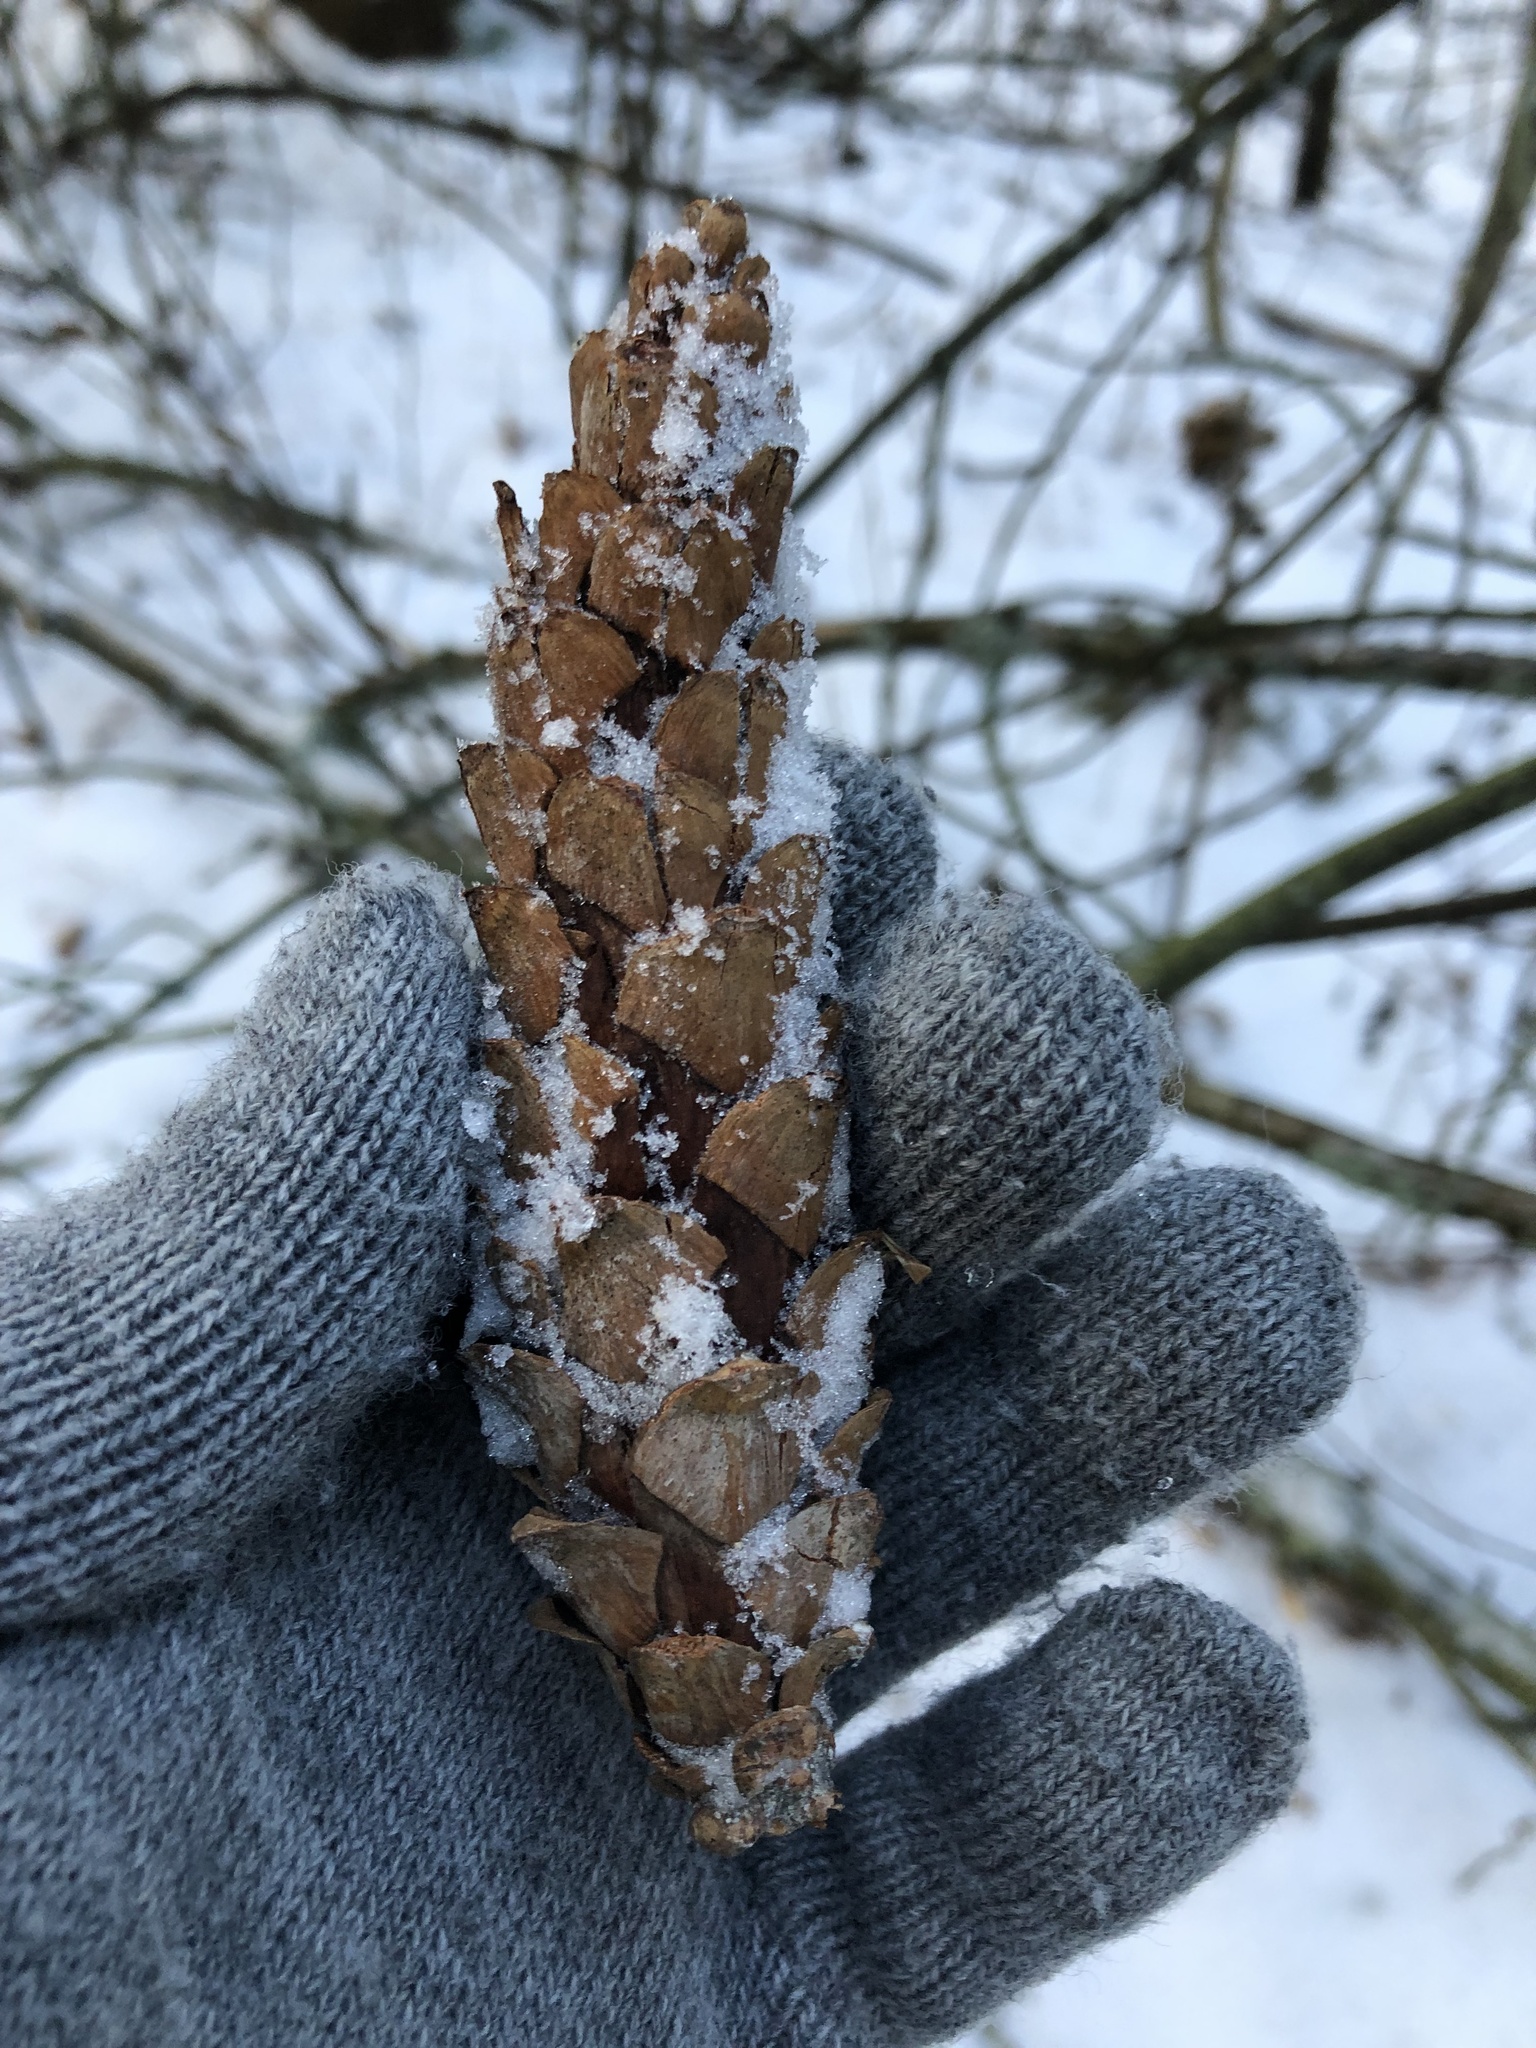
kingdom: Plantae
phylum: Tracheophyta
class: Pinopsida
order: Pinales
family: Pinaceae
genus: Pinus
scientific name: Pinus strobus
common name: Weymouth pine
